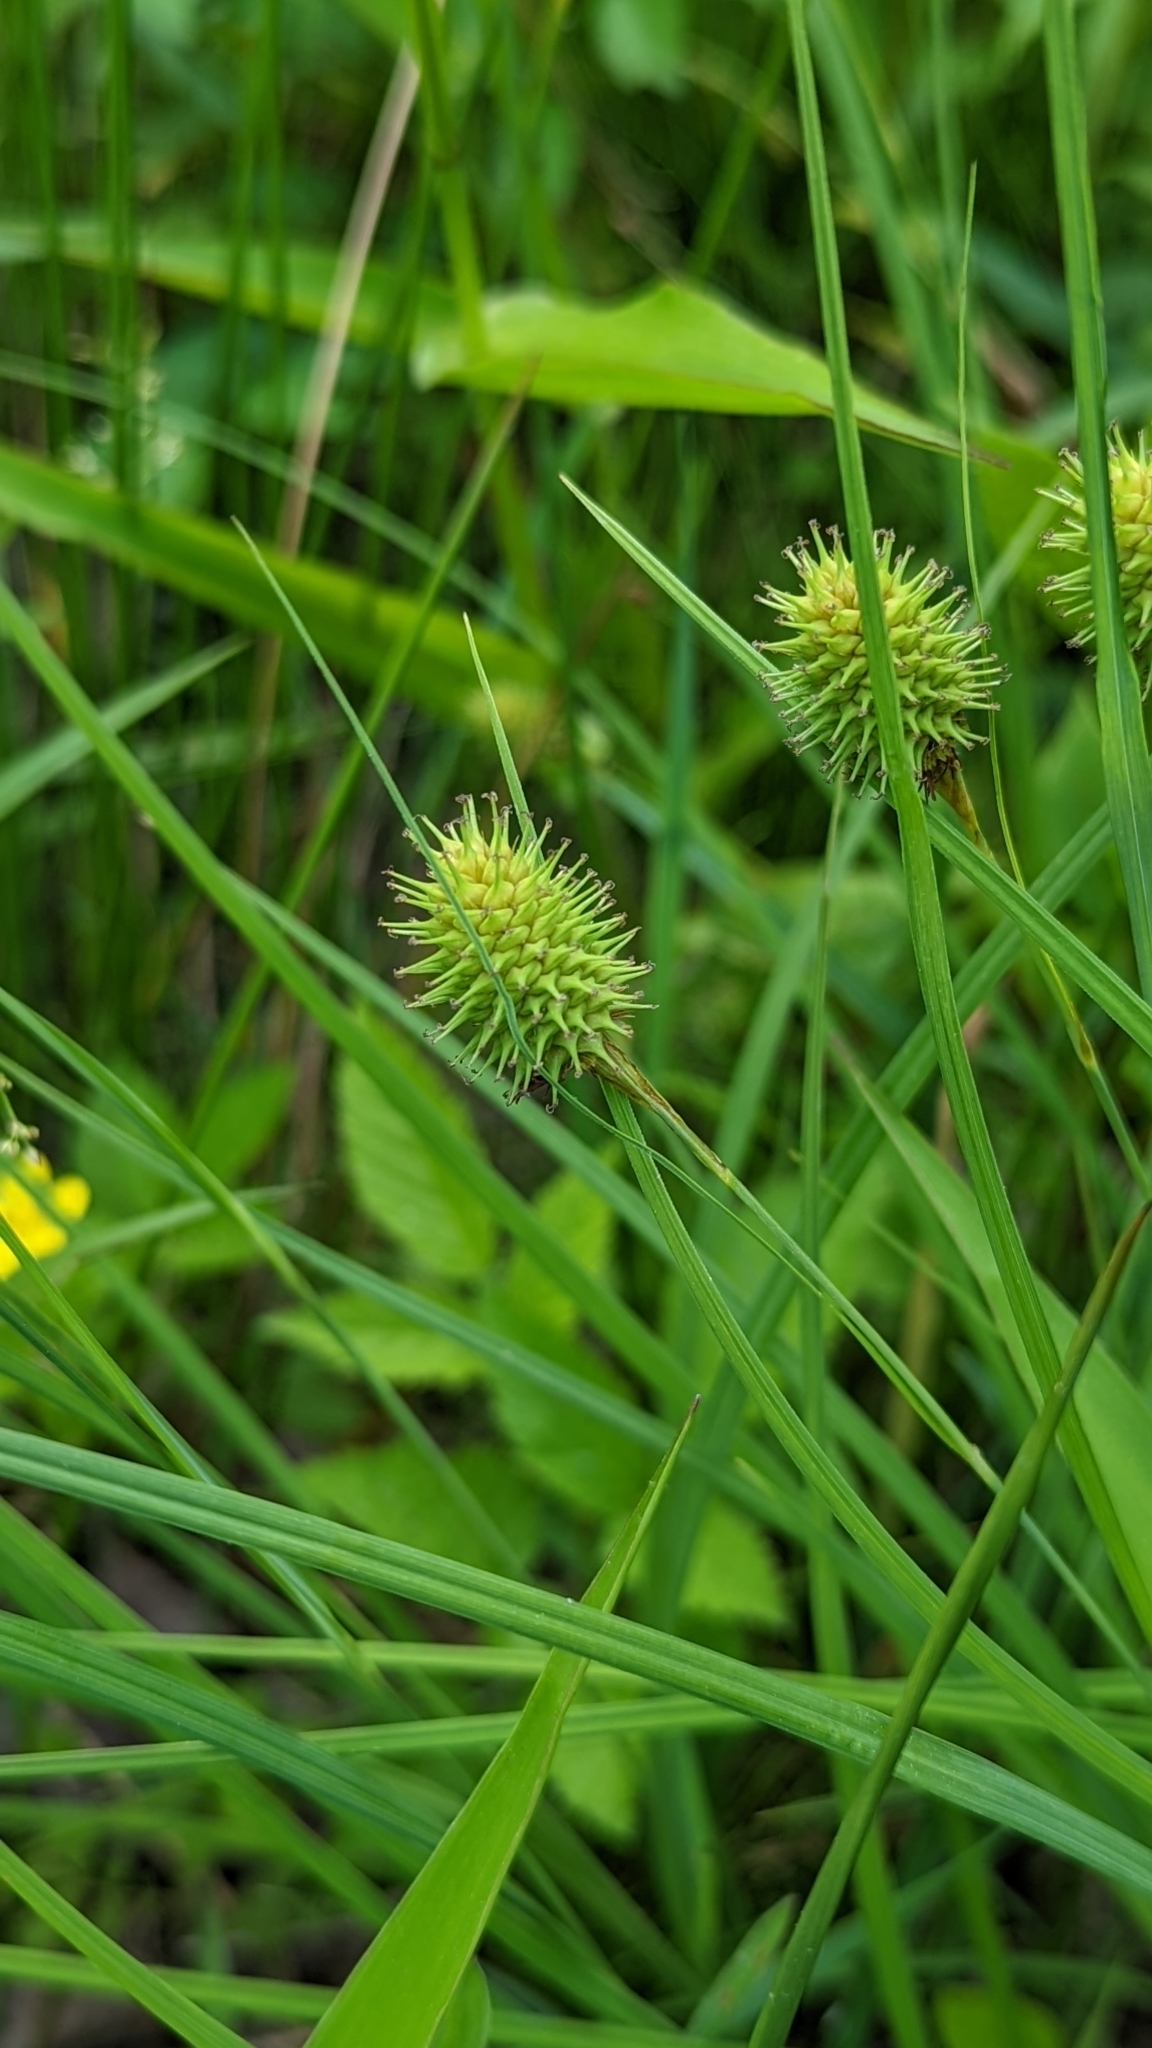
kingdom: Plantae
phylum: Tracheophyta
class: Liliopsida
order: Poales
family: Cyperaceae
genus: Carex
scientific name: Carex squarrosa
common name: Narrow-leaved cattail sedge
